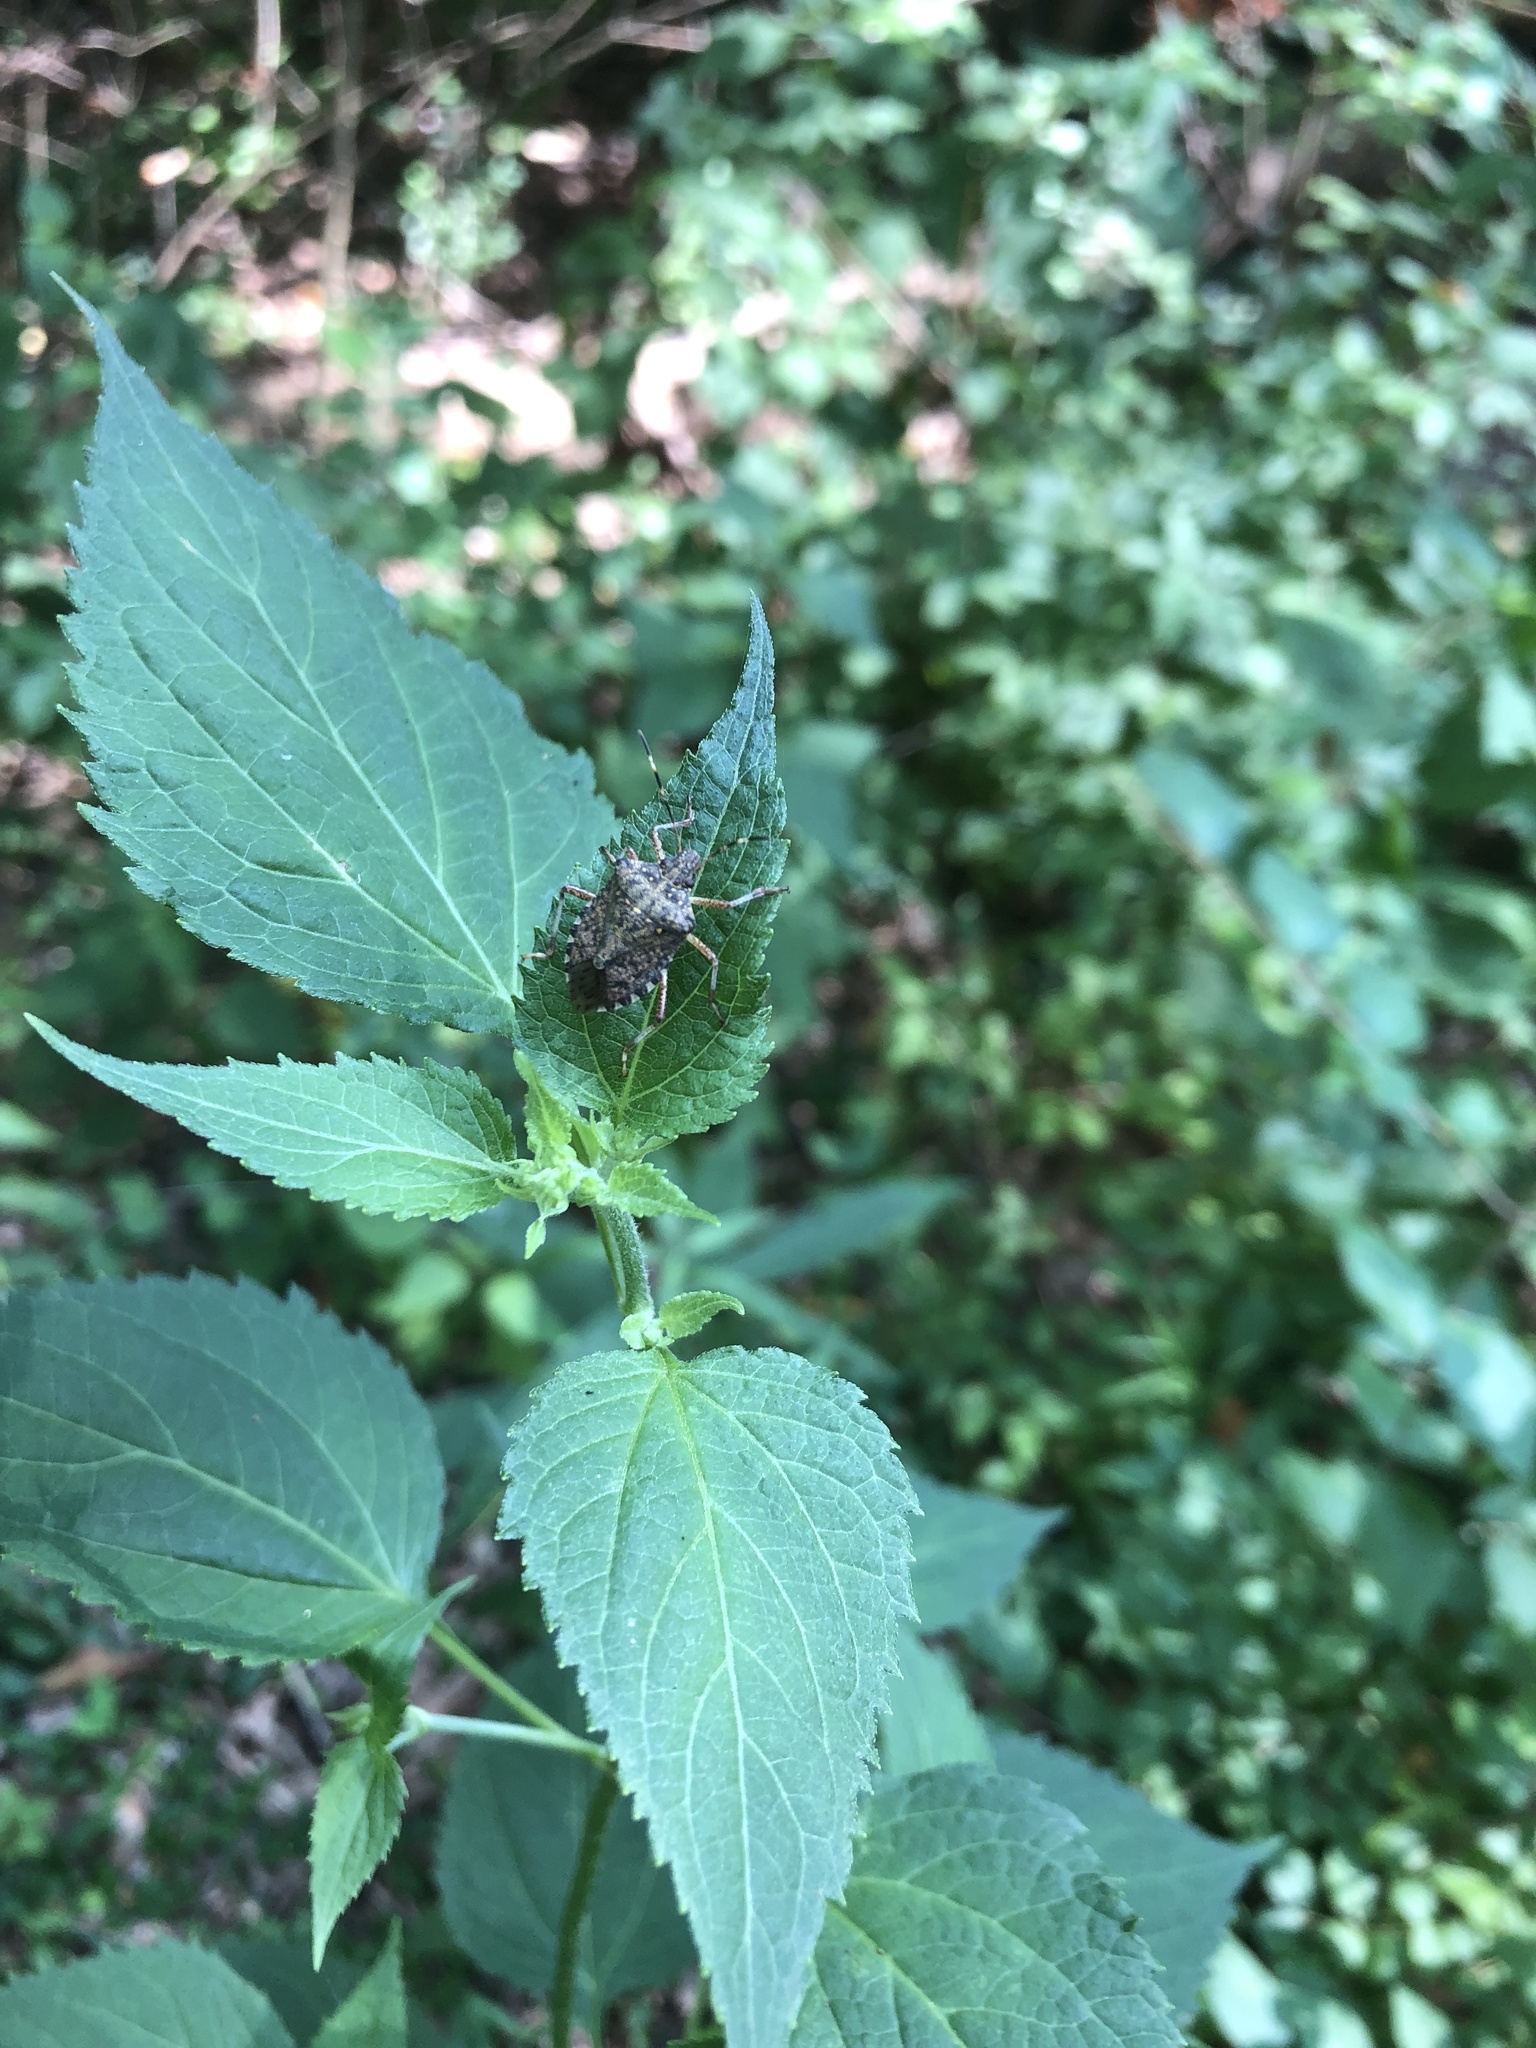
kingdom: Animalia
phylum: Arthropoda
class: Insecta
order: Hemiptera
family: Pentatomidae
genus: Halyomorpha
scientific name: Halyomorpha halys
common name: Brown marmorated stink bug
